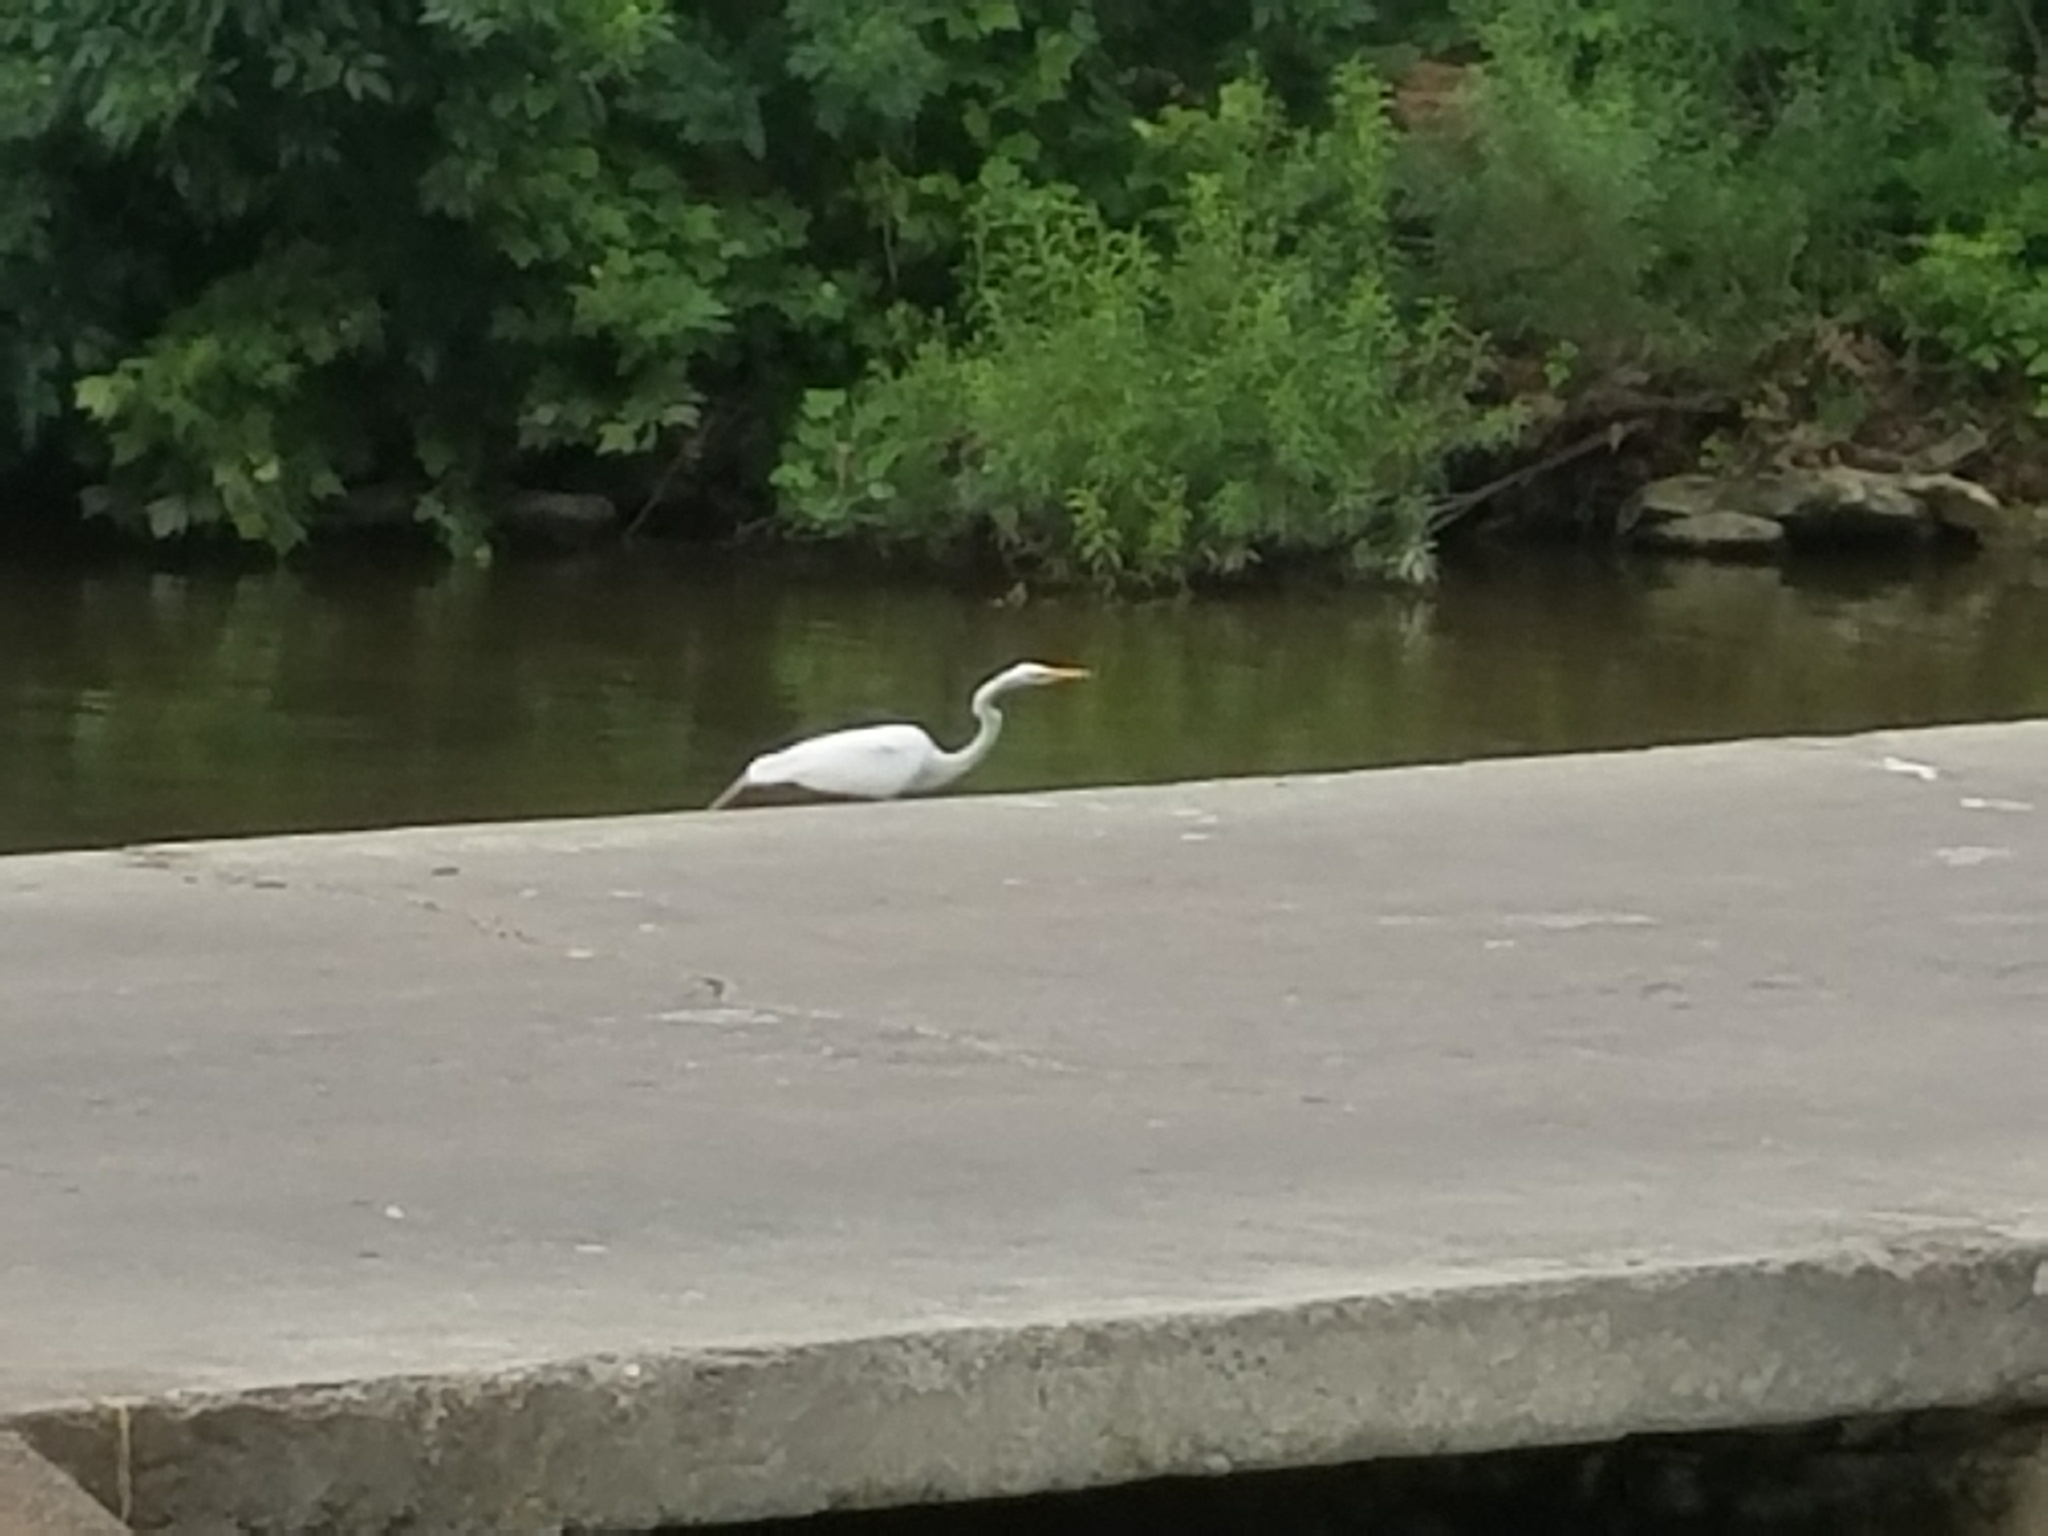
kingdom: Animalia
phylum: Chordata
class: Aves
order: Pelecaniformes
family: Ardeidae
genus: Ardea
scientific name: Ardea alba
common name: Great egret
